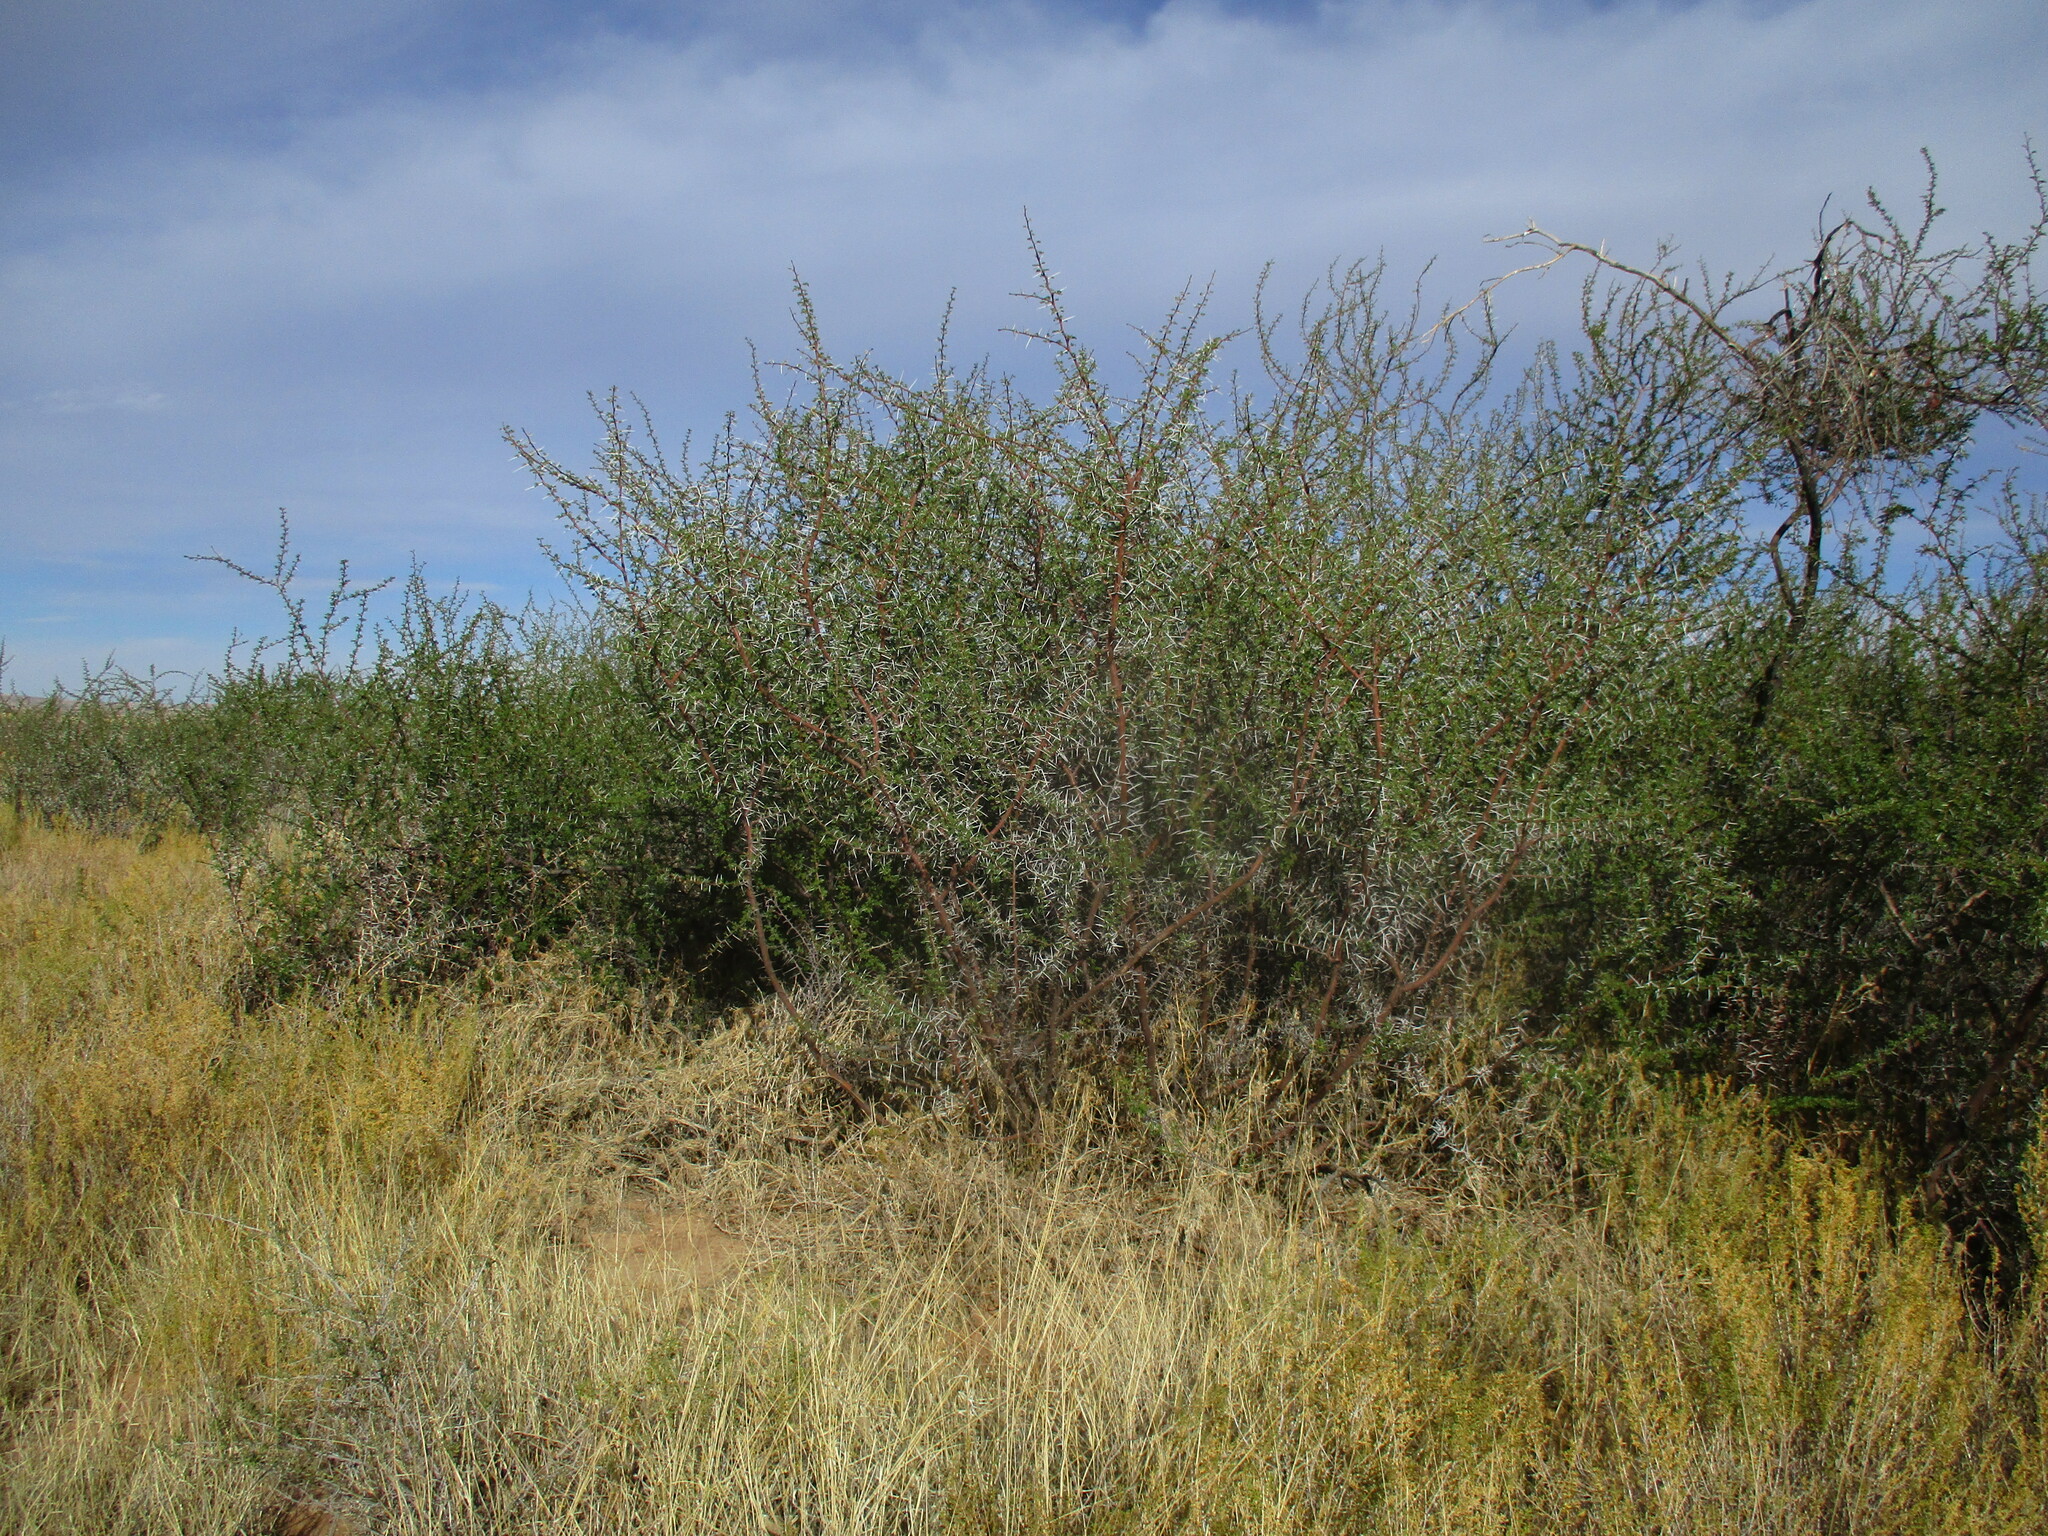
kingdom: Plantae
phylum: Tracheophyta
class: Magnoliopsida
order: Fabales
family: Fabaceae
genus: Vachellia
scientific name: Vachellia nebrownii
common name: Water acacia
